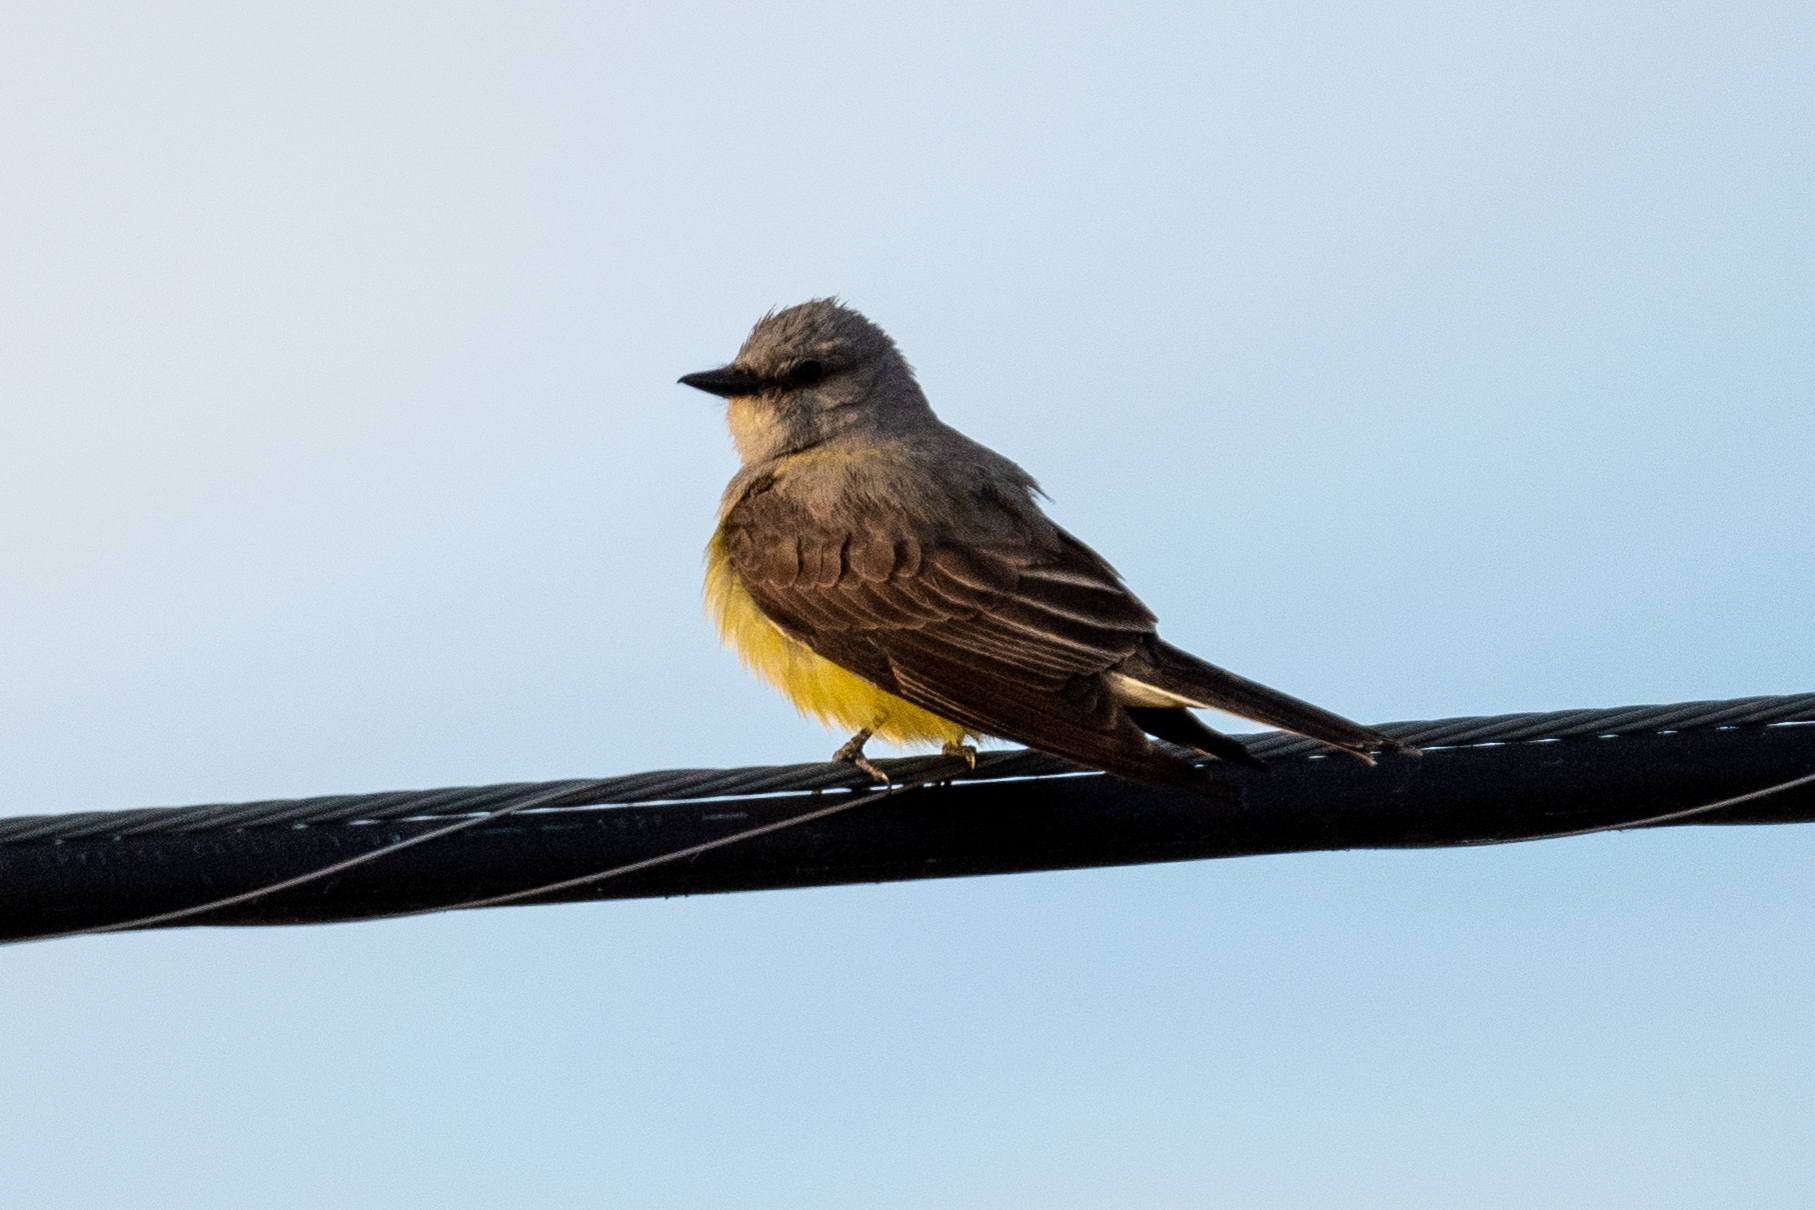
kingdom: Animalia
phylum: Chordata
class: Aves
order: Passeriformes
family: Tyrannidae
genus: Tyrannus
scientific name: Tyrannus verticalis
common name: Western kingbird
